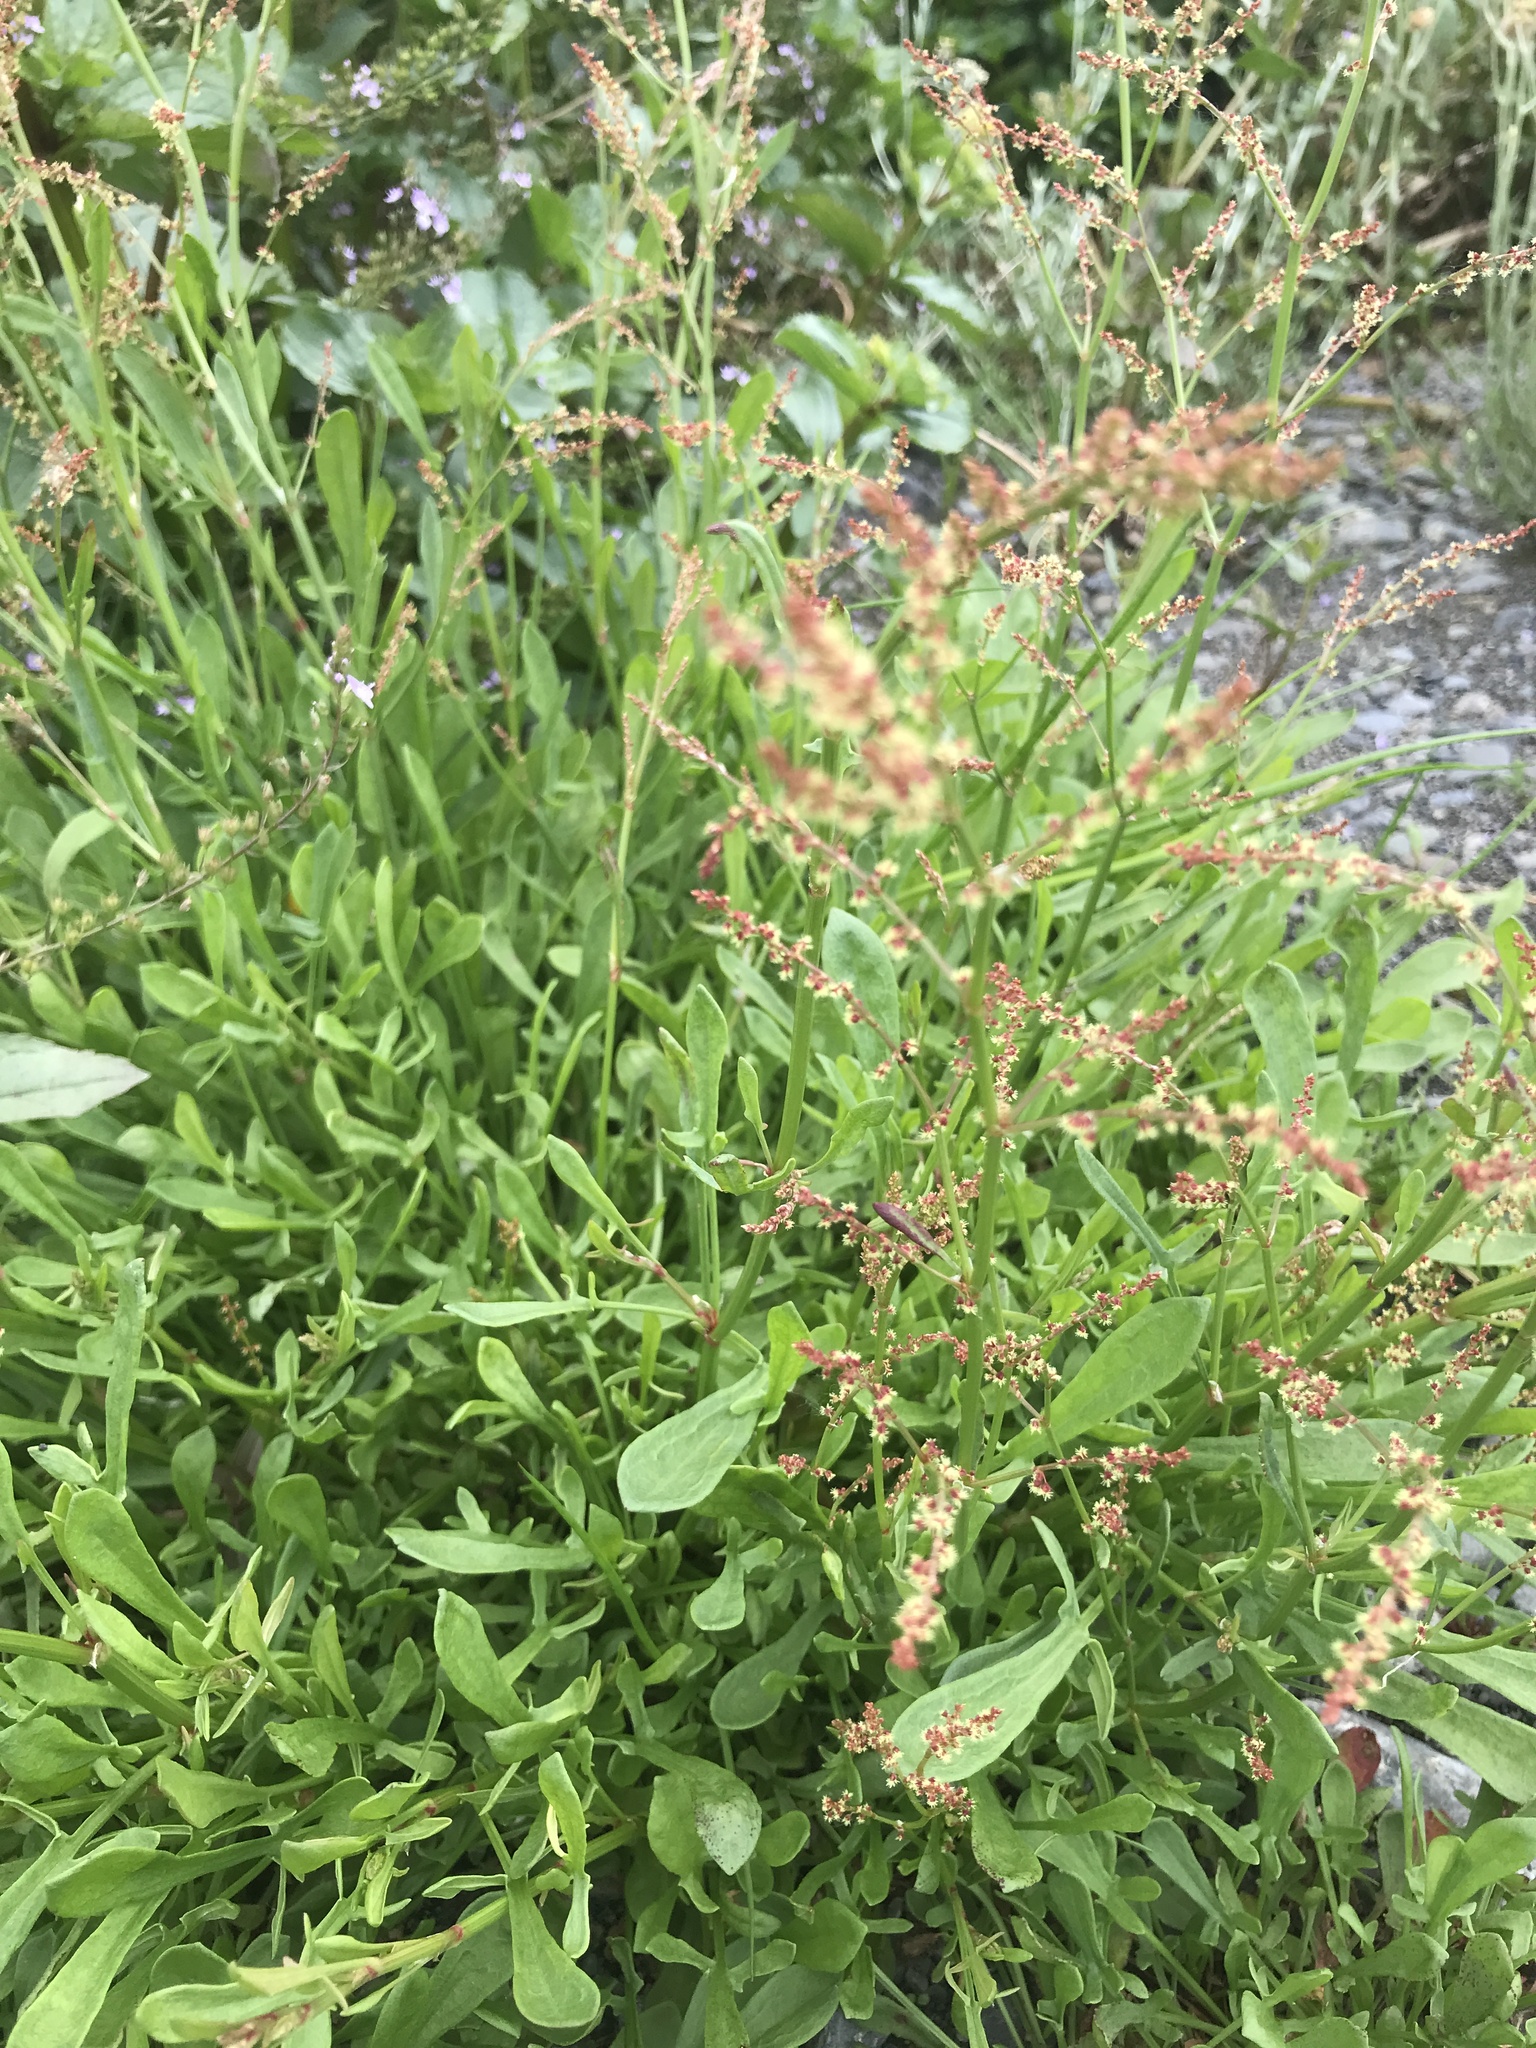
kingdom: Plantae
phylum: Tracheophyta
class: Magnoliopsida
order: Caryophyllales
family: Polygonaceae
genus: Rumex
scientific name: Rumex acetosella
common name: Common sheep sorrel
